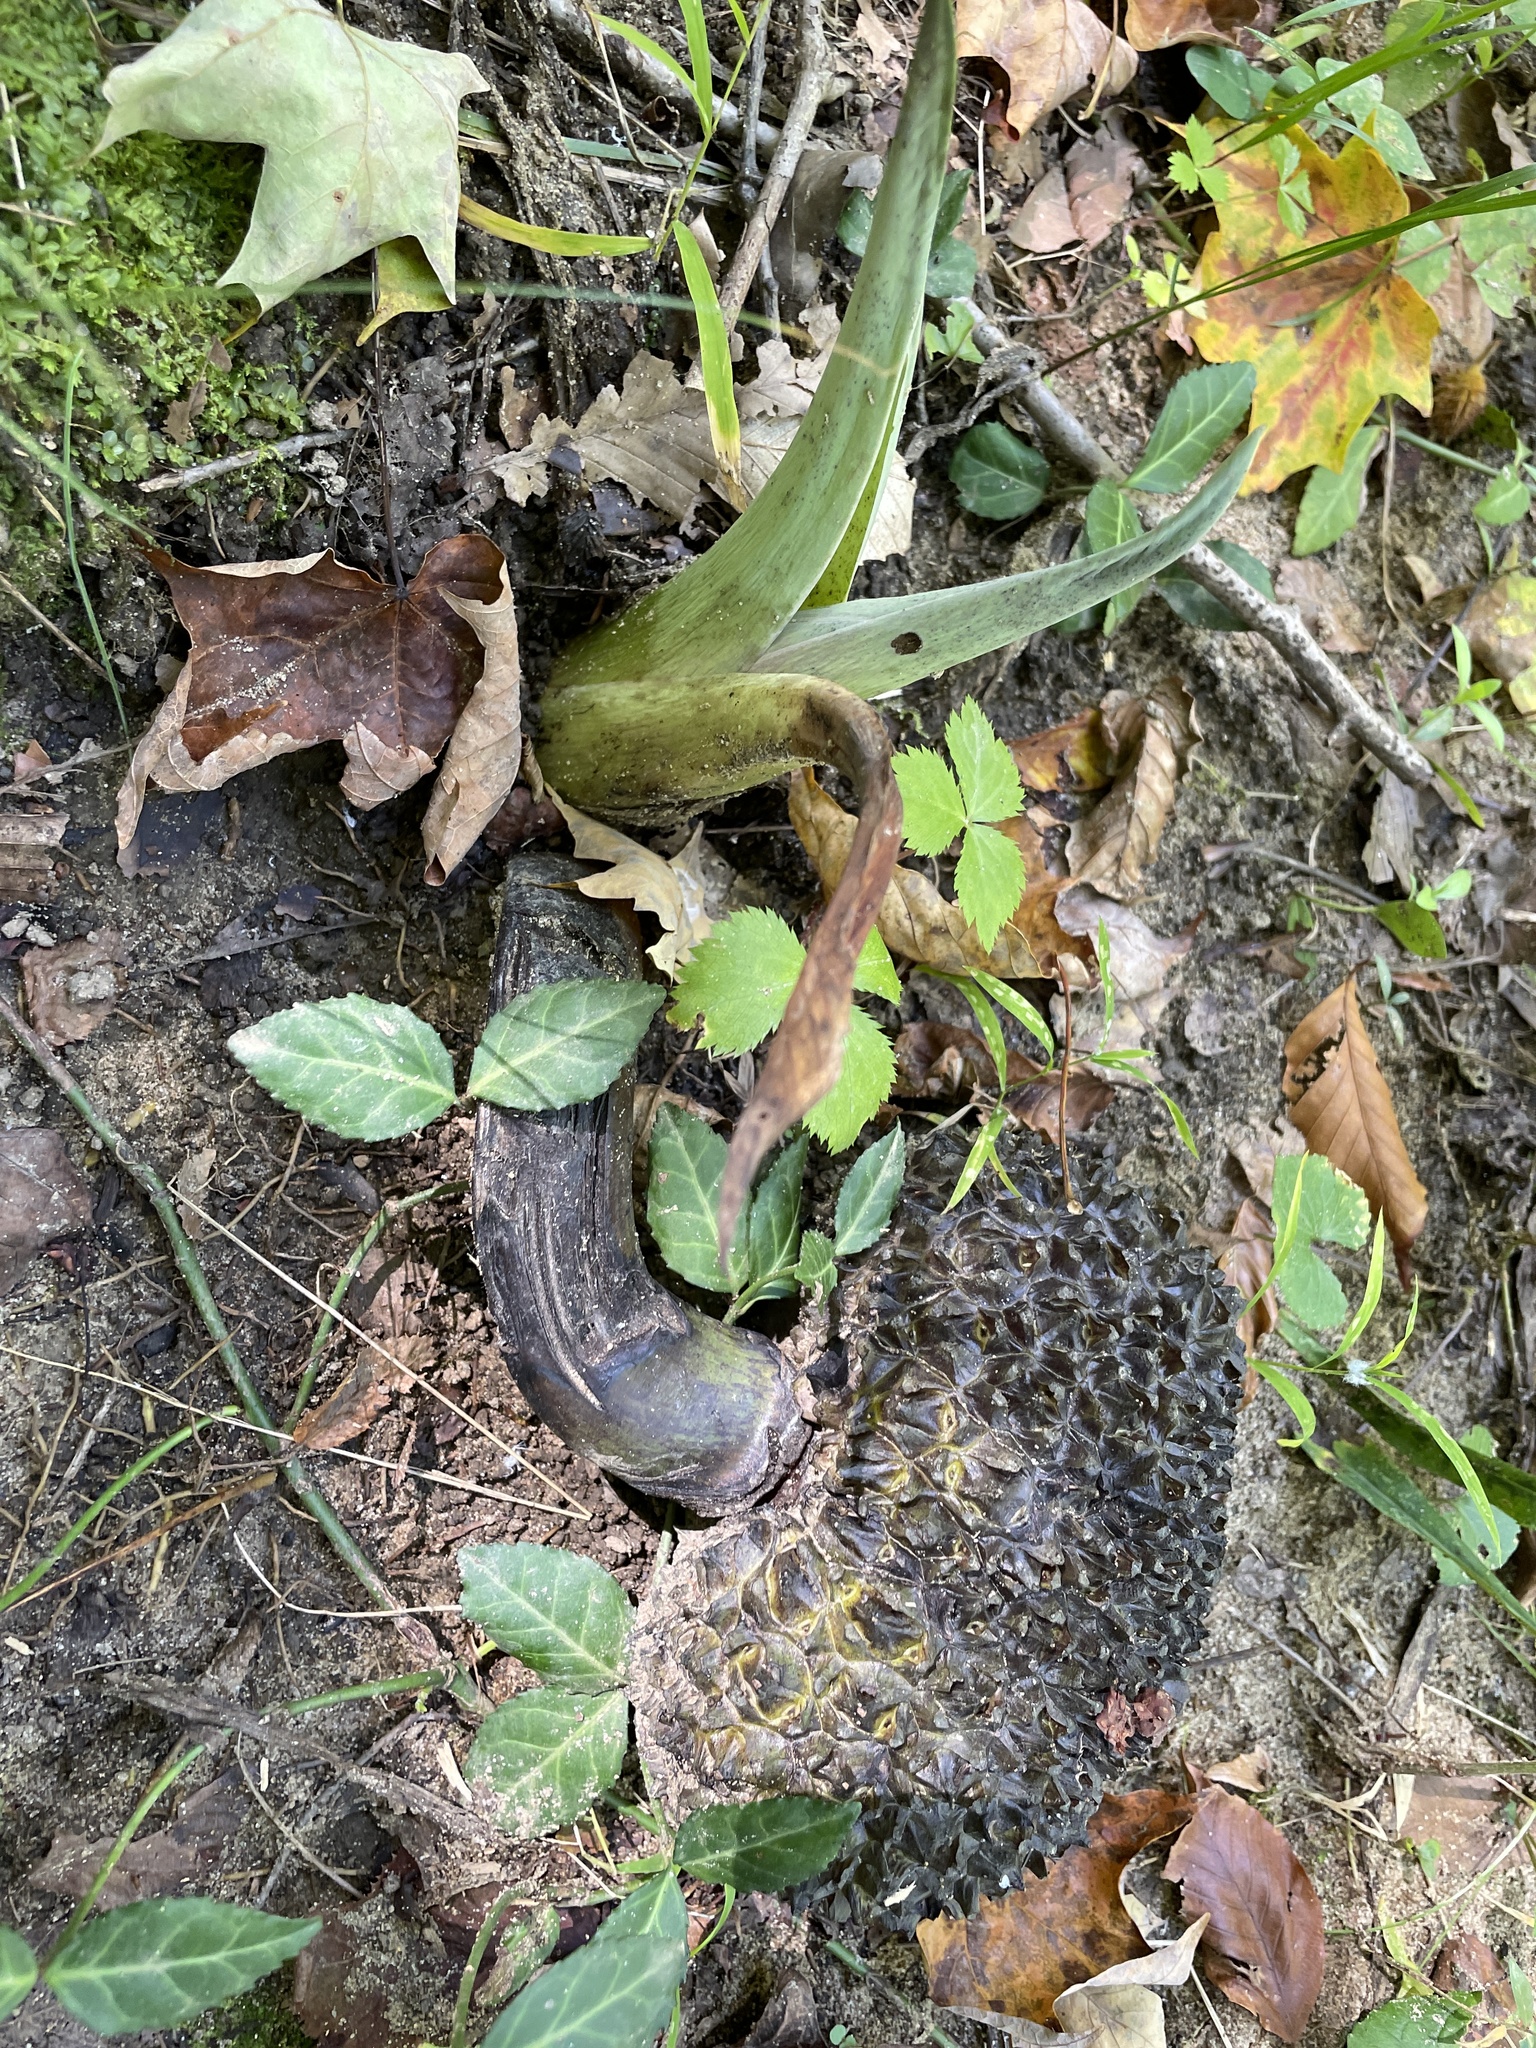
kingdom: Plantae
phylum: Tracheophyta
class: Liliopsida
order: Alismatales
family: Araceae
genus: Symplocarpus
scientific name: Symplocarpus foetidus
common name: Eastern skunk cabbage
